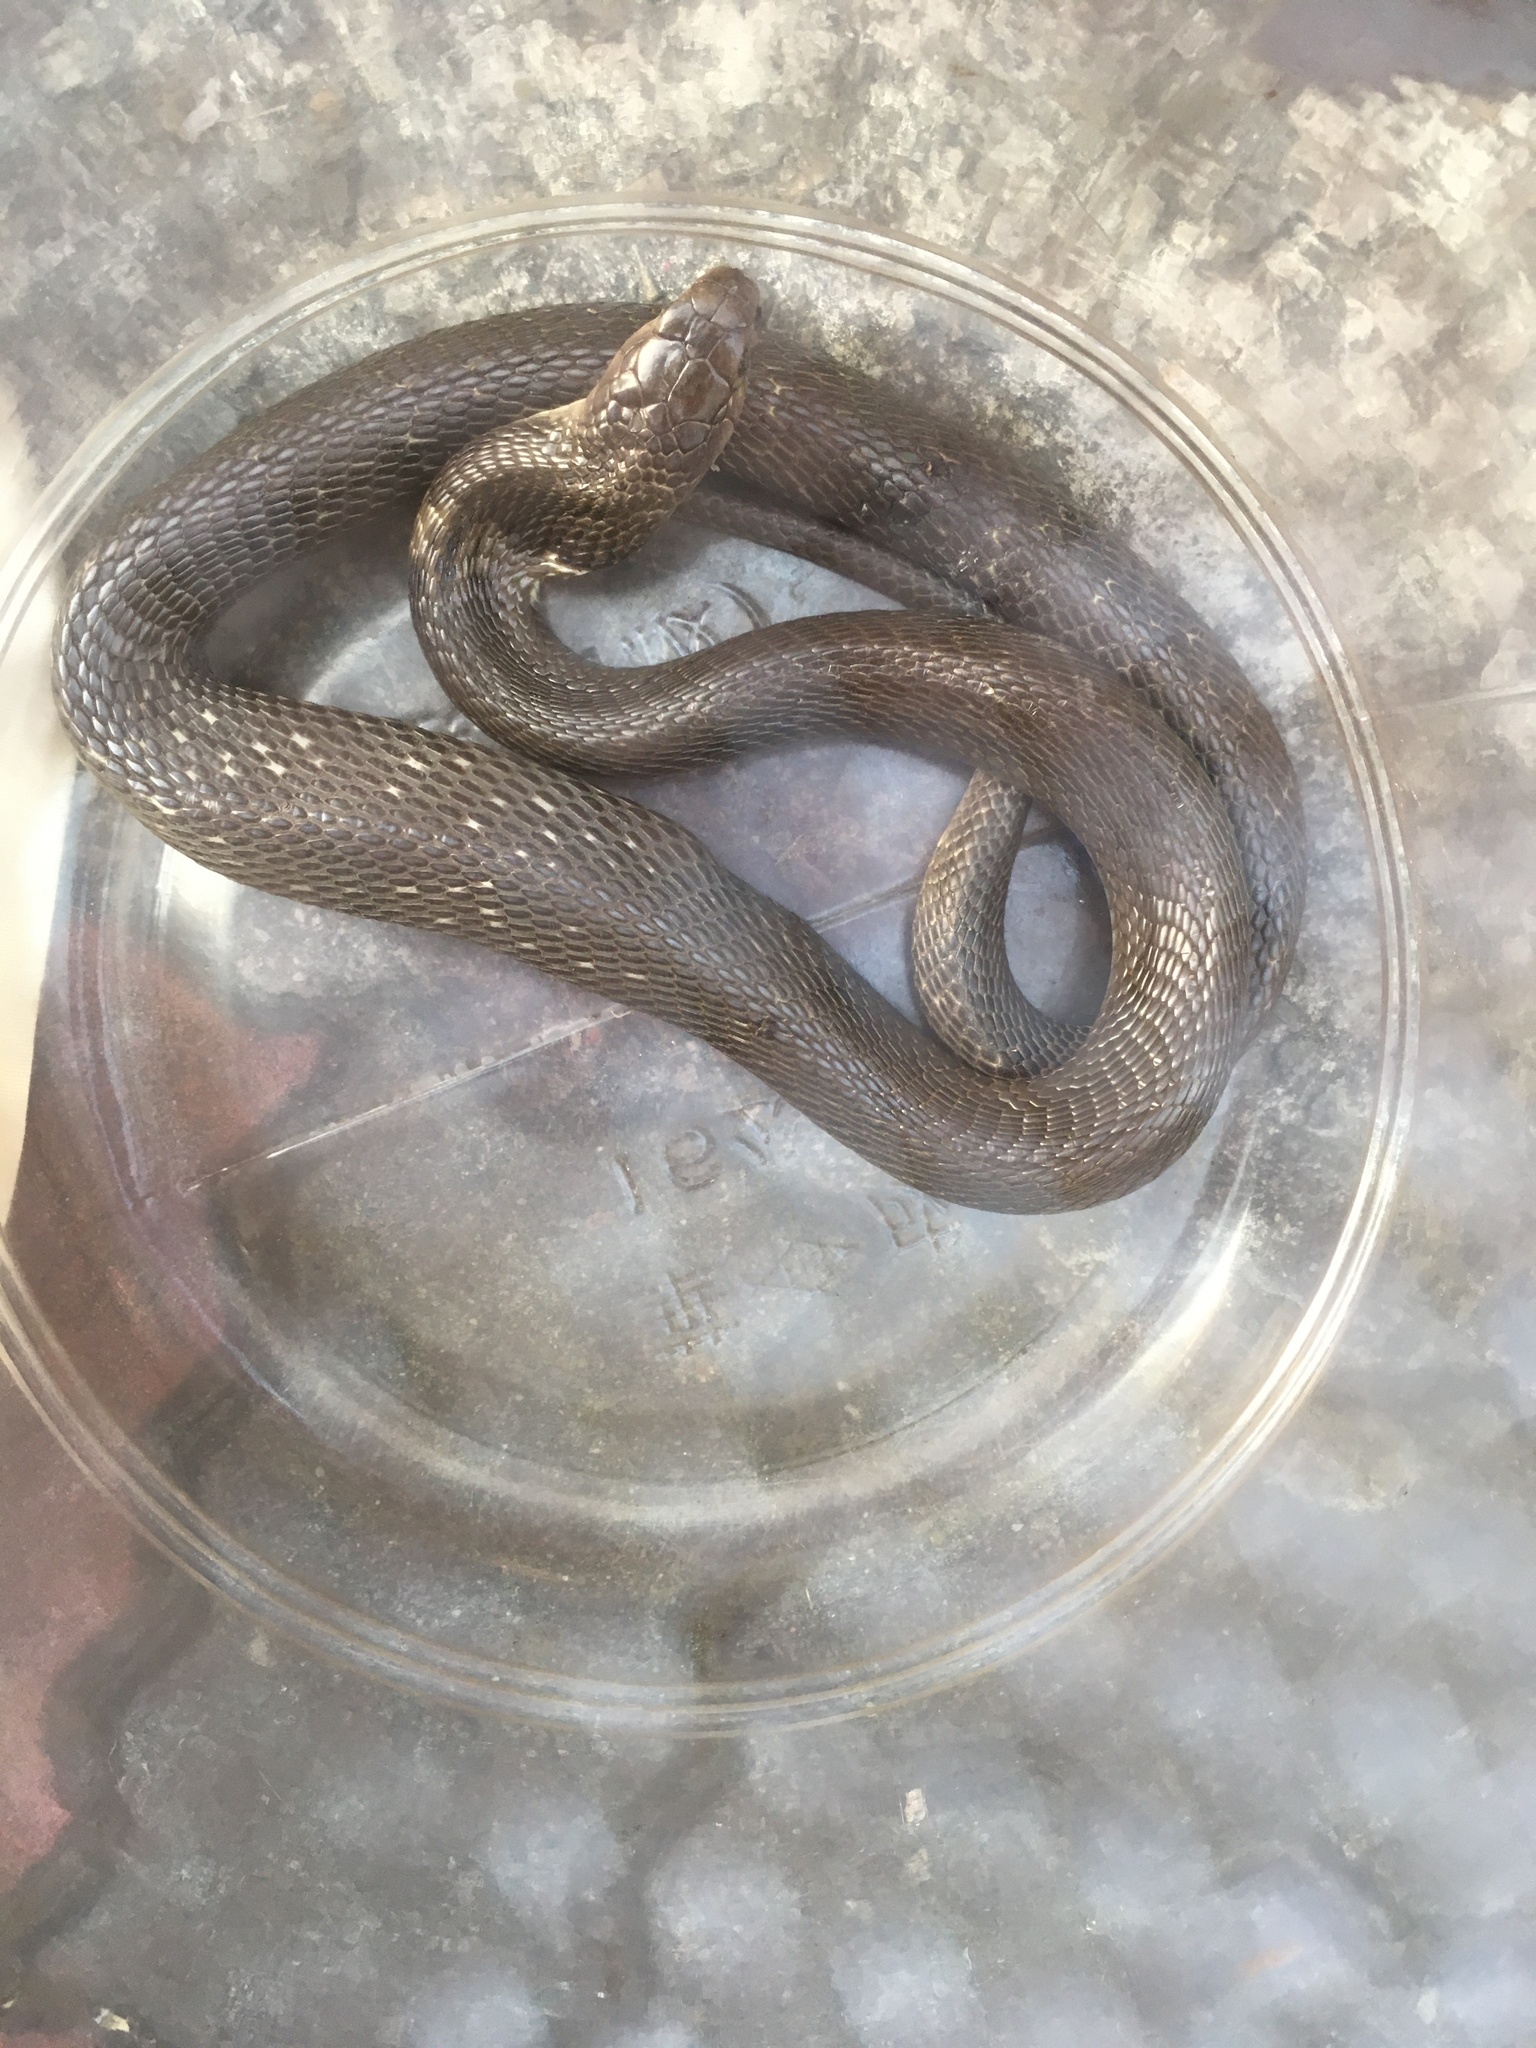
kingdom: Animalia
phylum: Chordata
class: Squamata
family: Elapidae
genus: Naja
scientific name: Naja atra
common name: Chinese cobra
